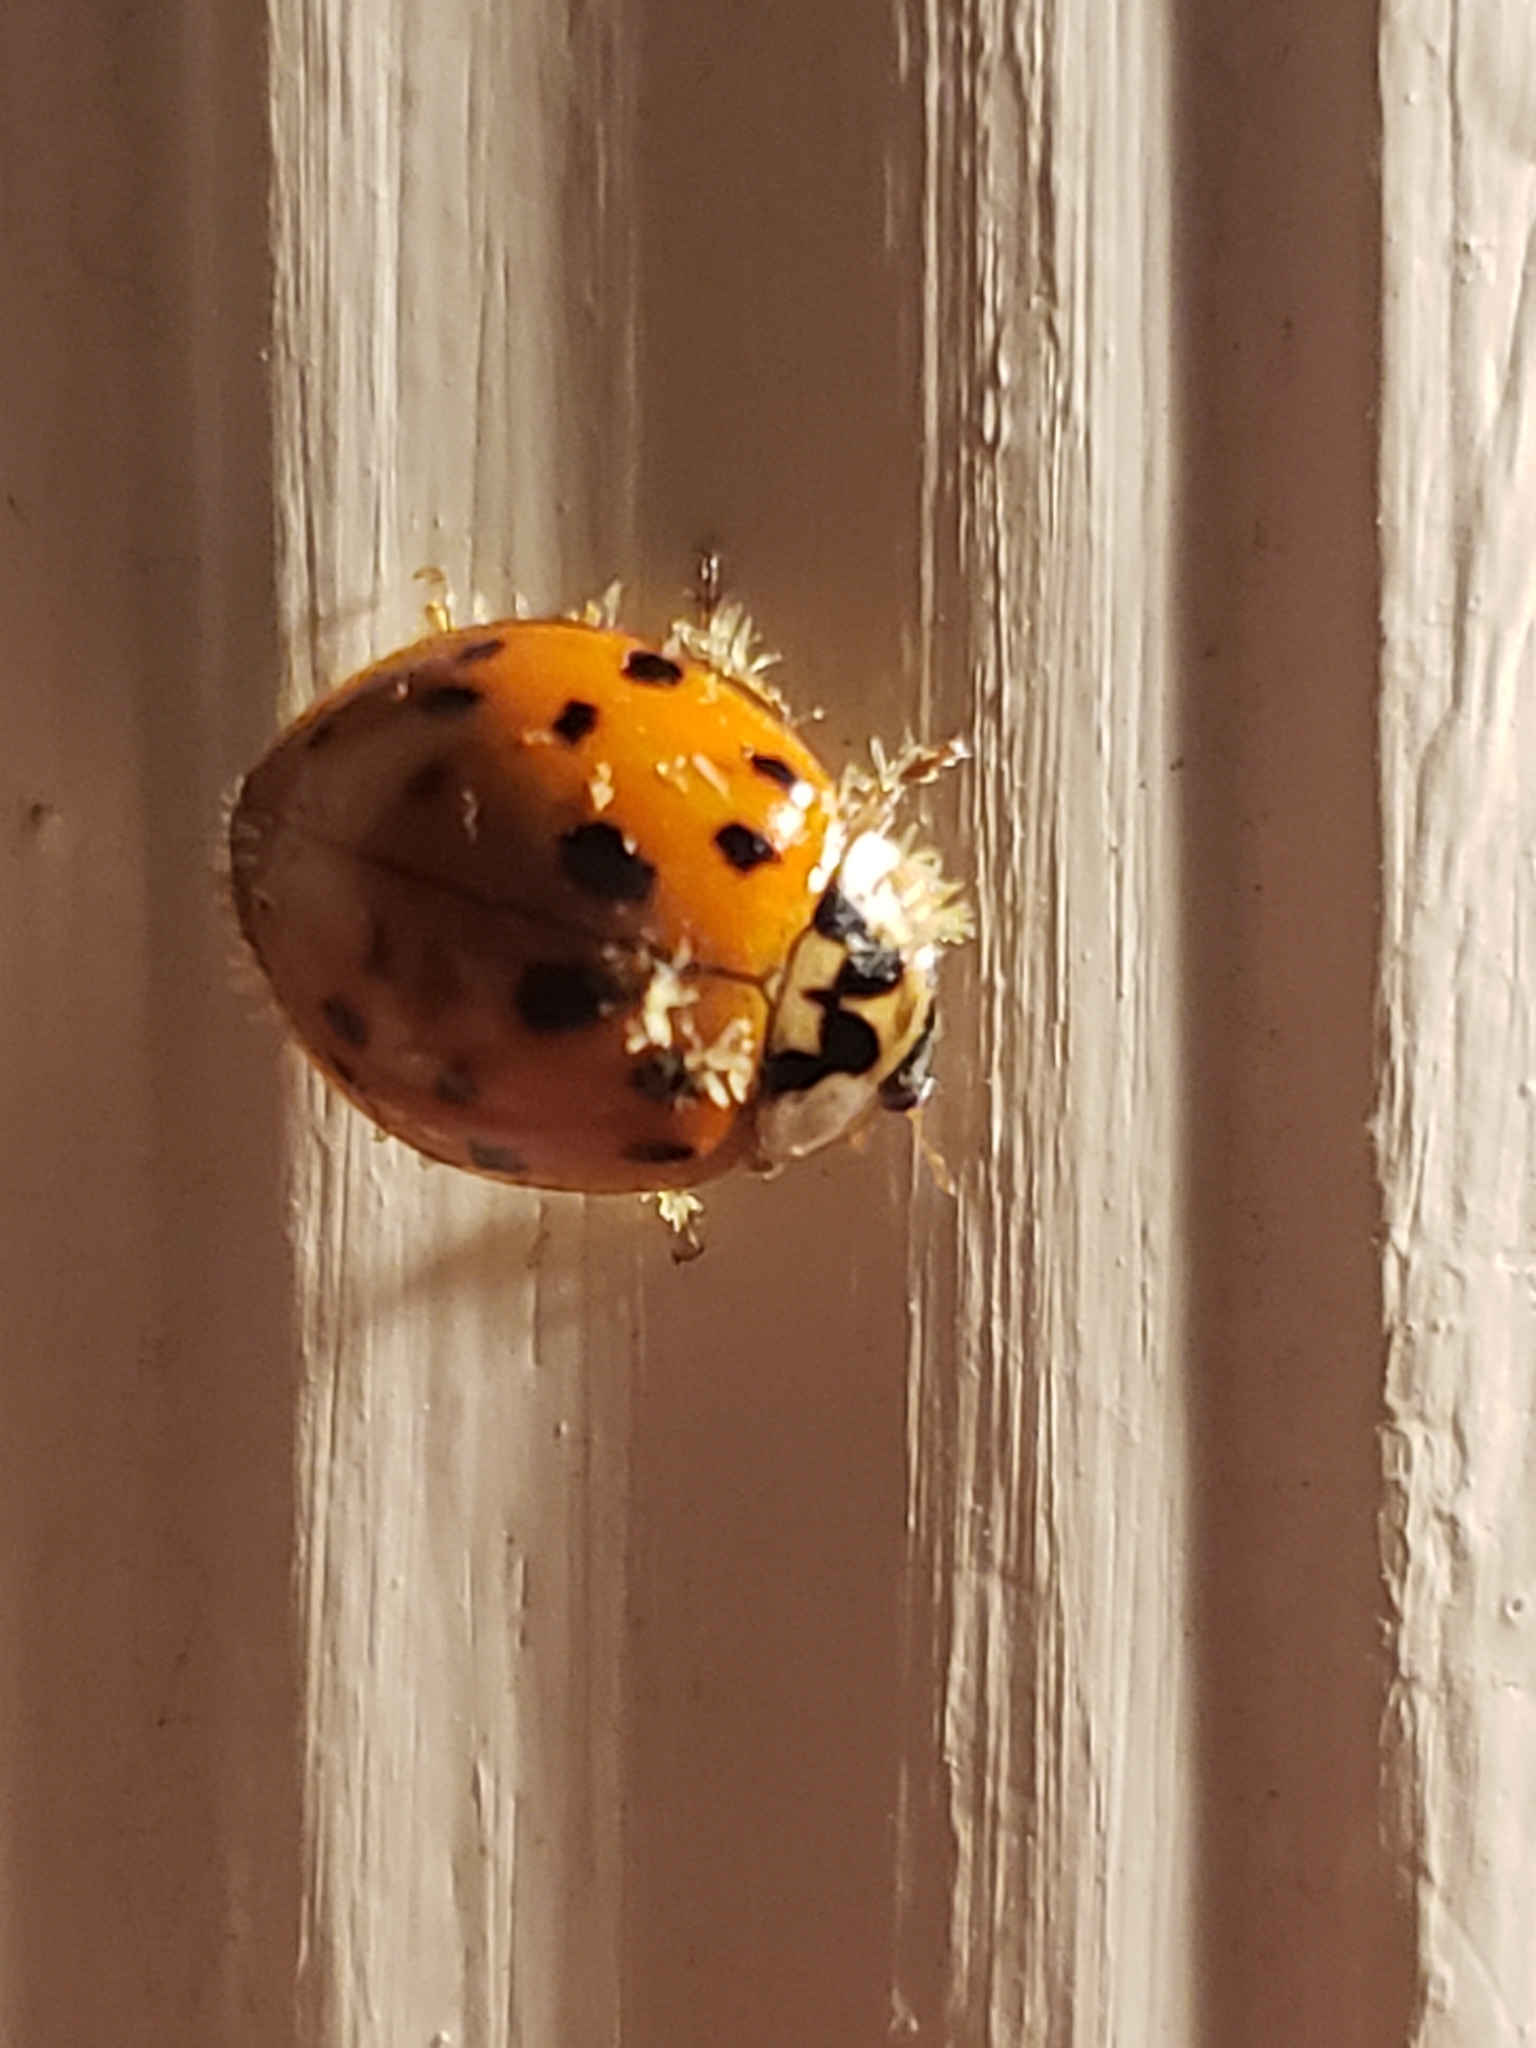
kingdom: Fungi
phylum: Ascomycota
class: Laboulbeniomycetes
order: Laboulbeniales
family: Laboulbeniaceae
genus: Hesperomyces
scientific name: Hesperomyces harmoniae
